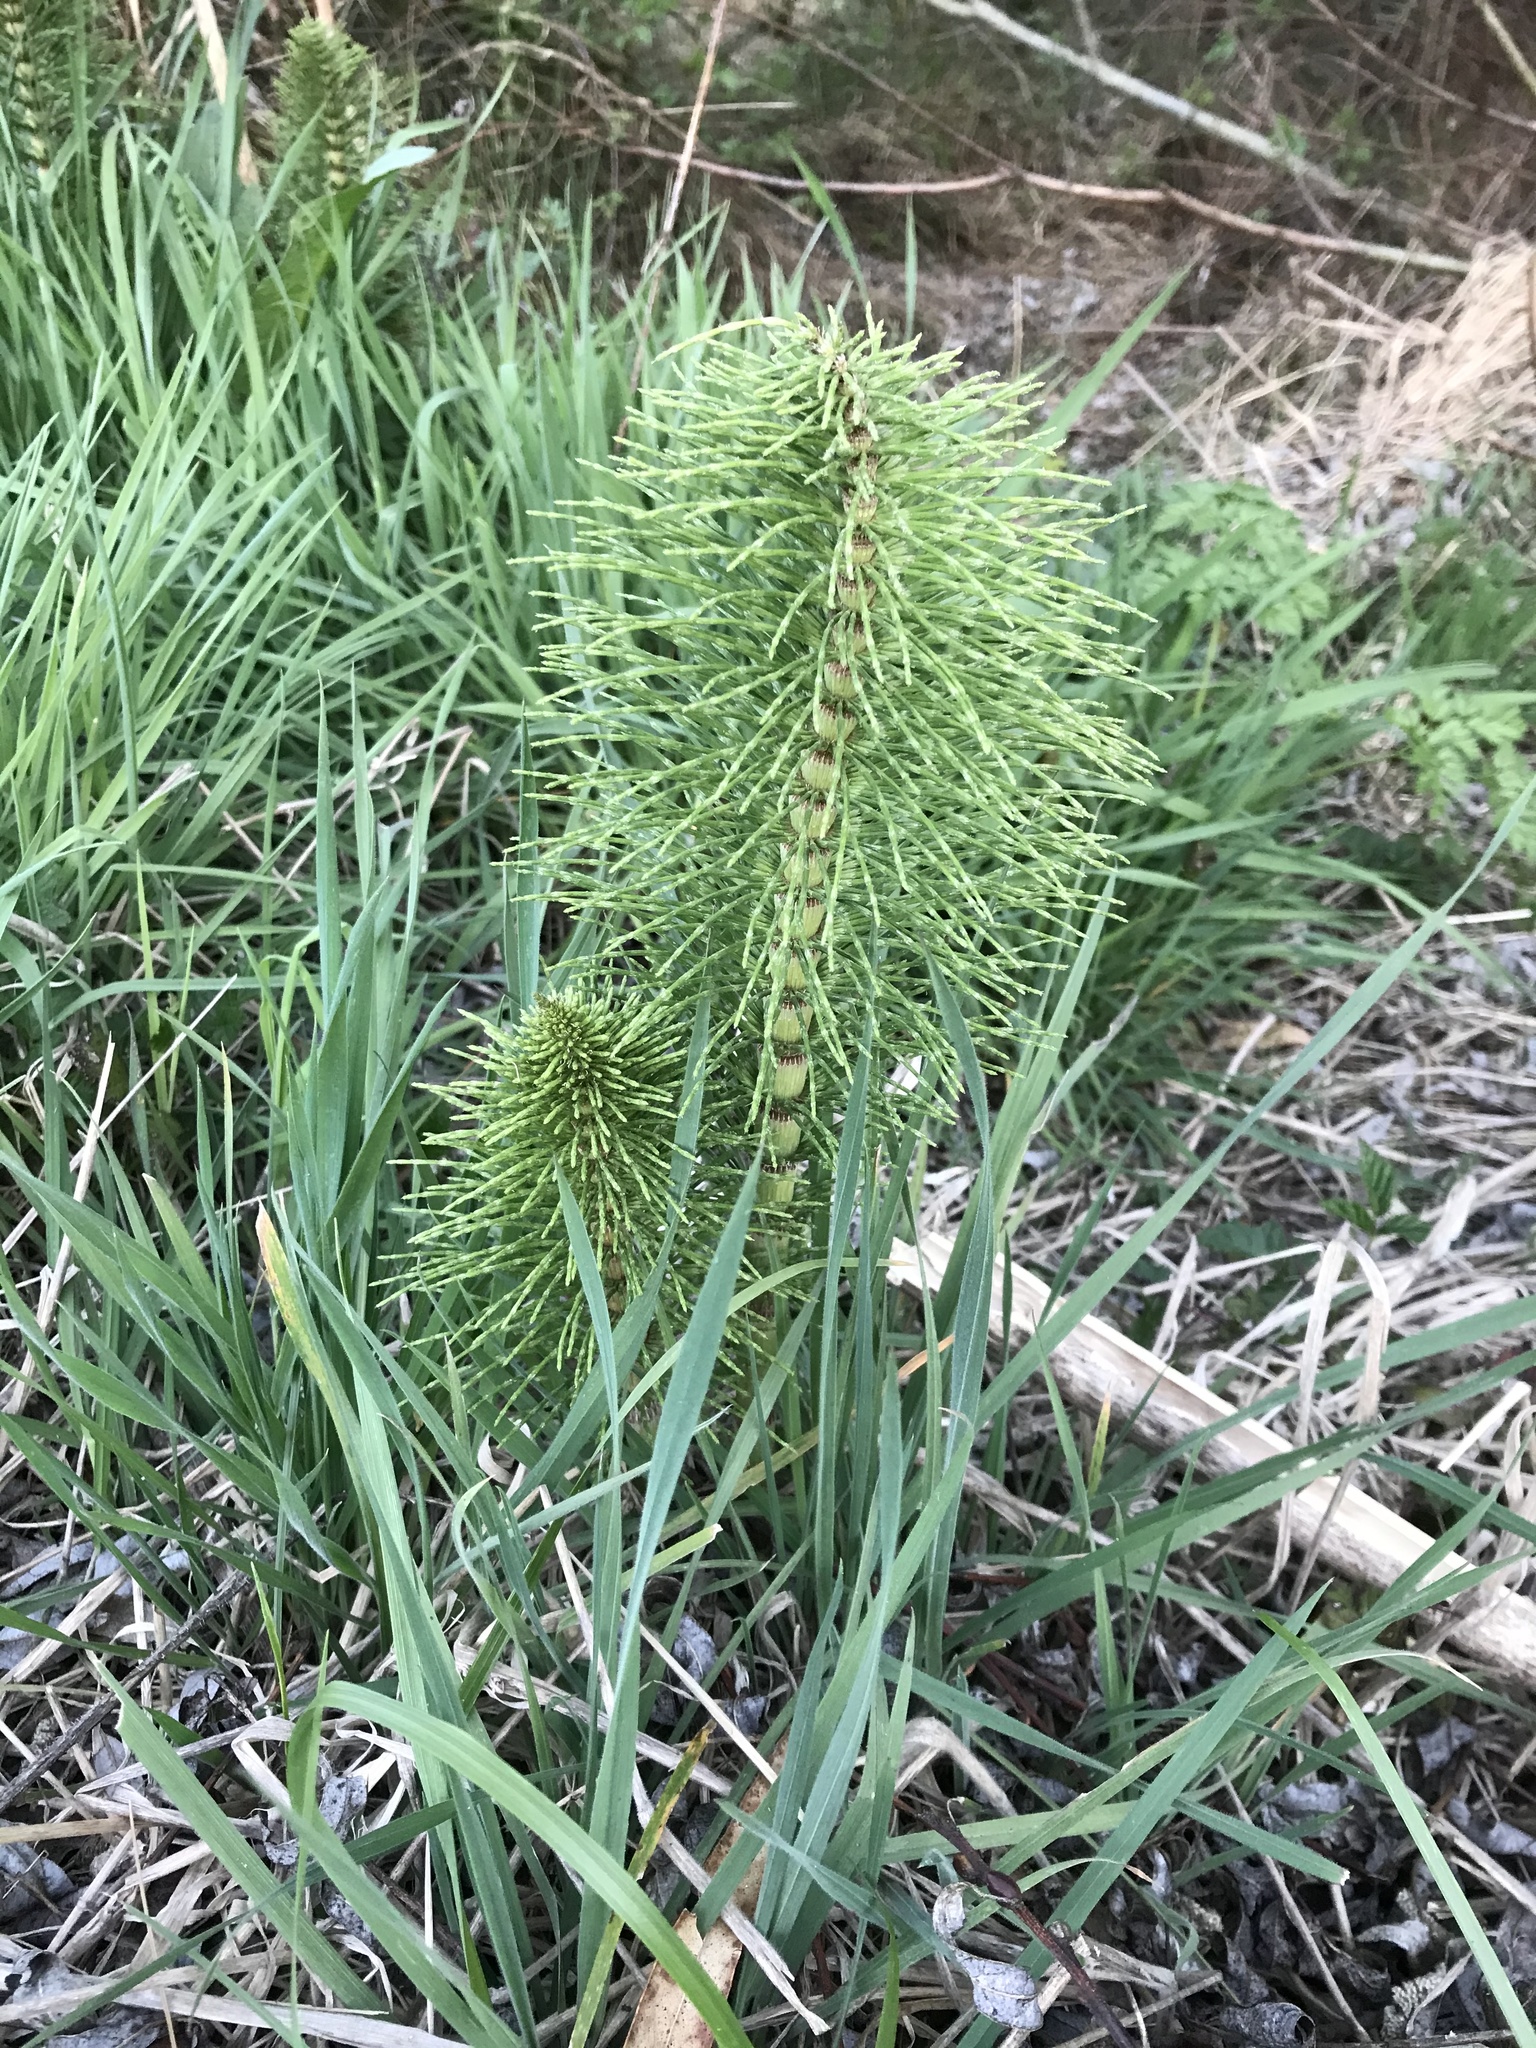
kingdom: Plantae
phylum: Tracheophyta
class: Polypodiopsida
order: Equisetales
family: Equisetaceae
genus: Equisetum
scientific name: Equisetum telmateia
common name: Great horsetail
